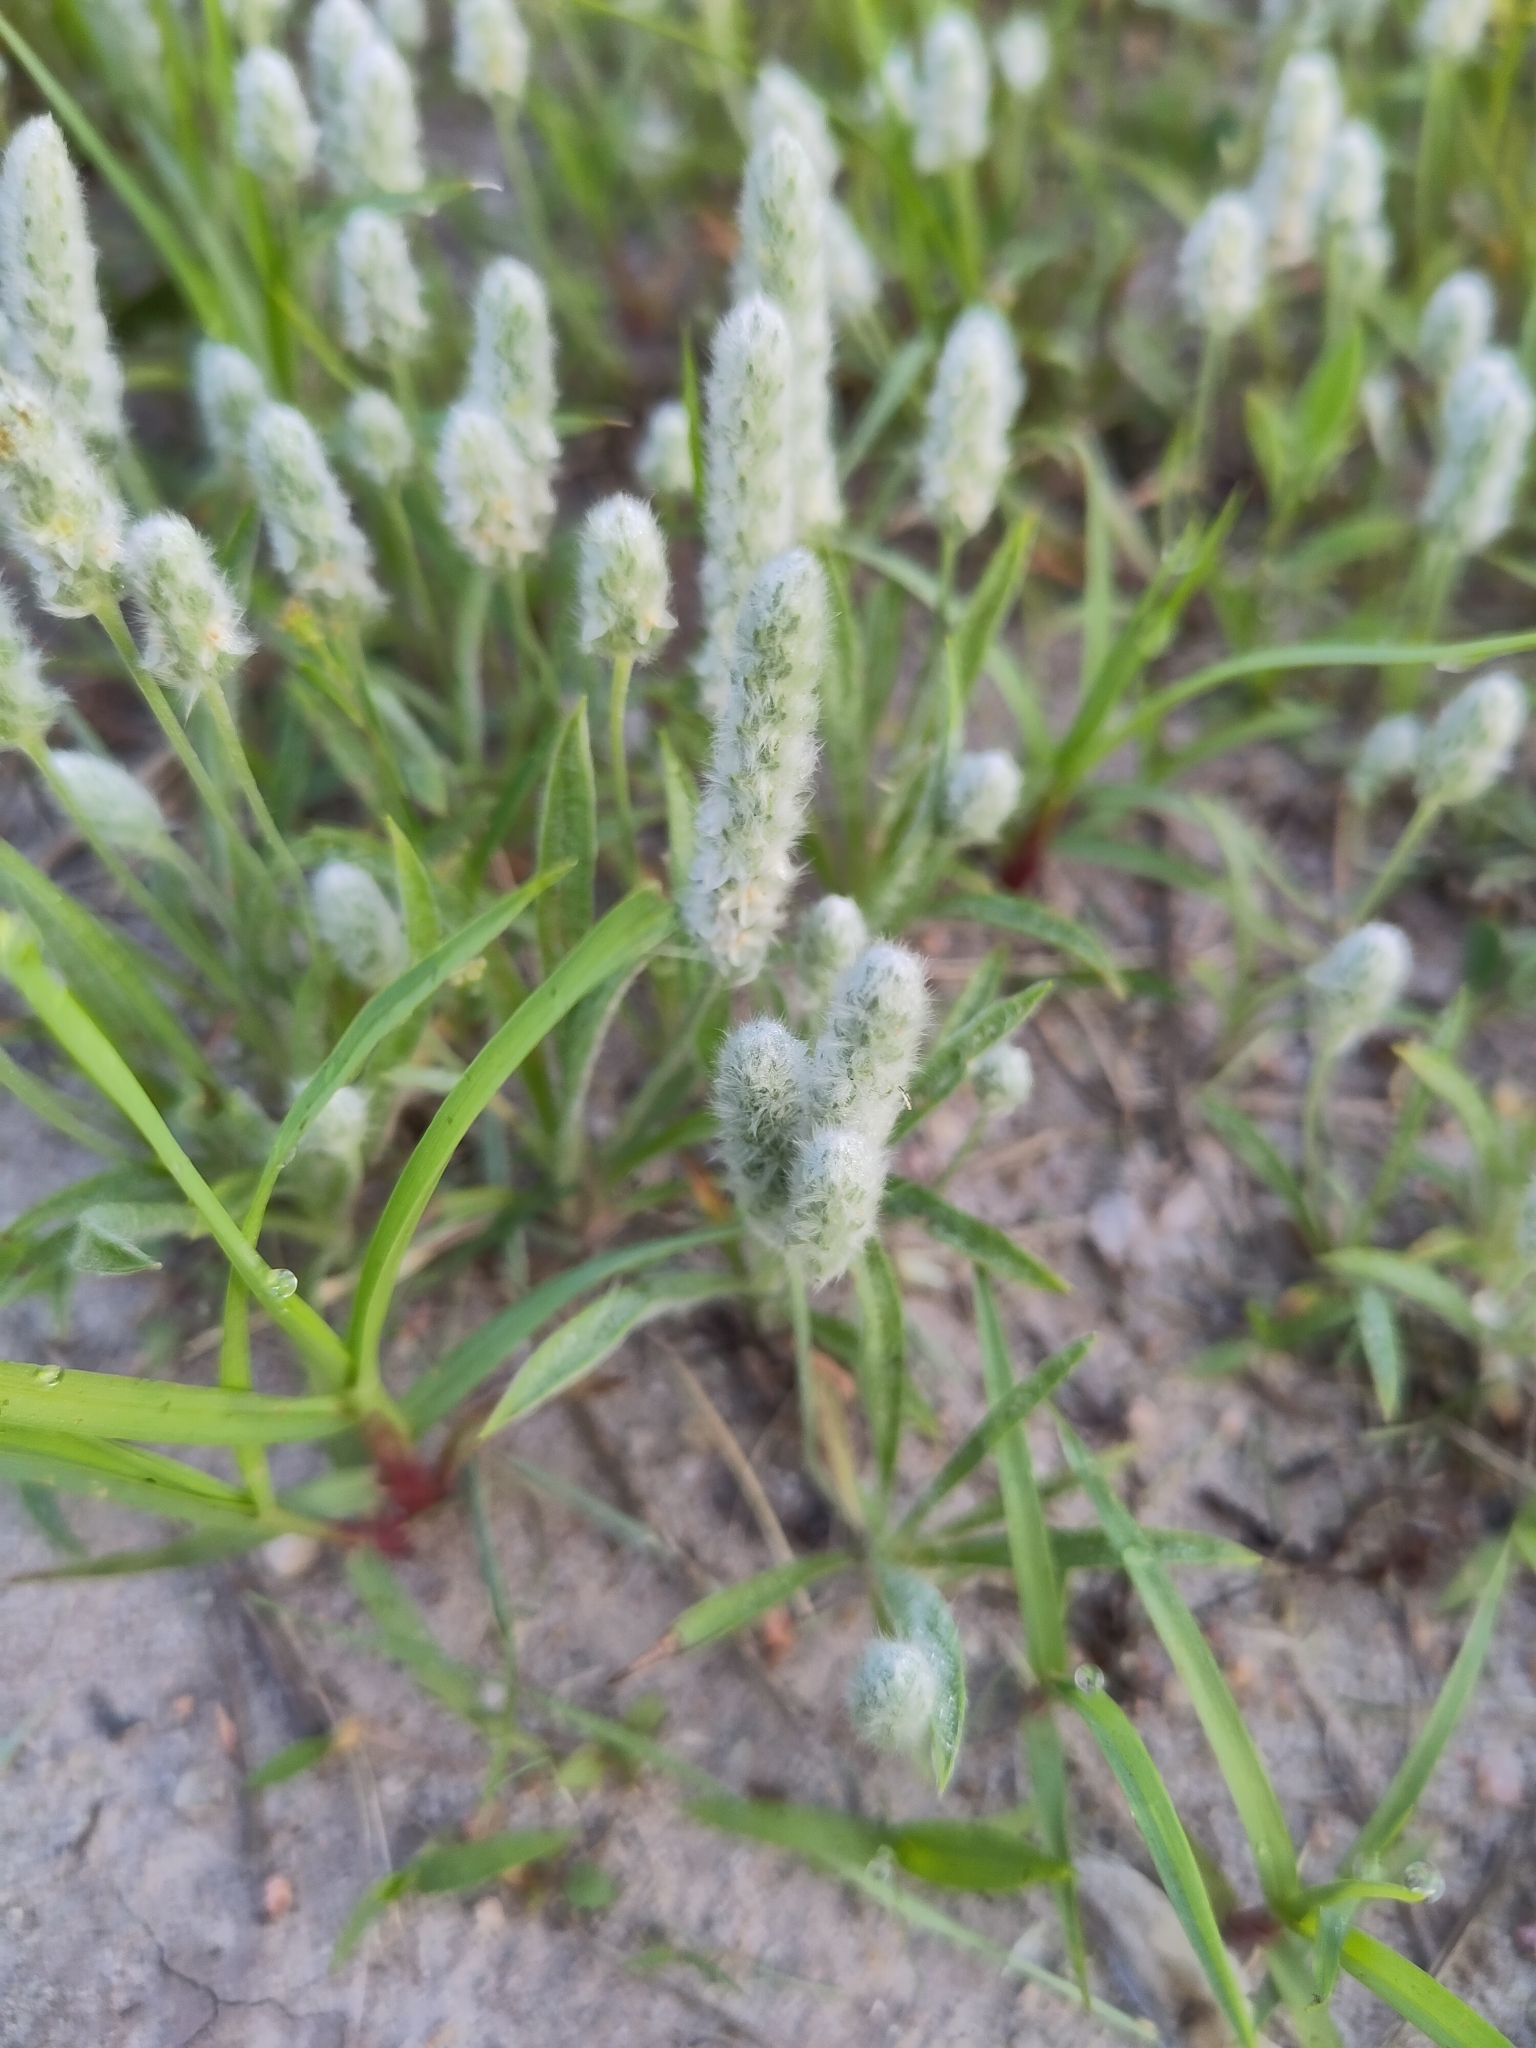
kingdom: Plantae
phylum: Tracheophyta
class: Magnoliopsida
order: Lamiales
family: Plantaginaceae
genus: Plantago
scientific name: Plantago patagonica
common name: Patagonia indian-wheat
